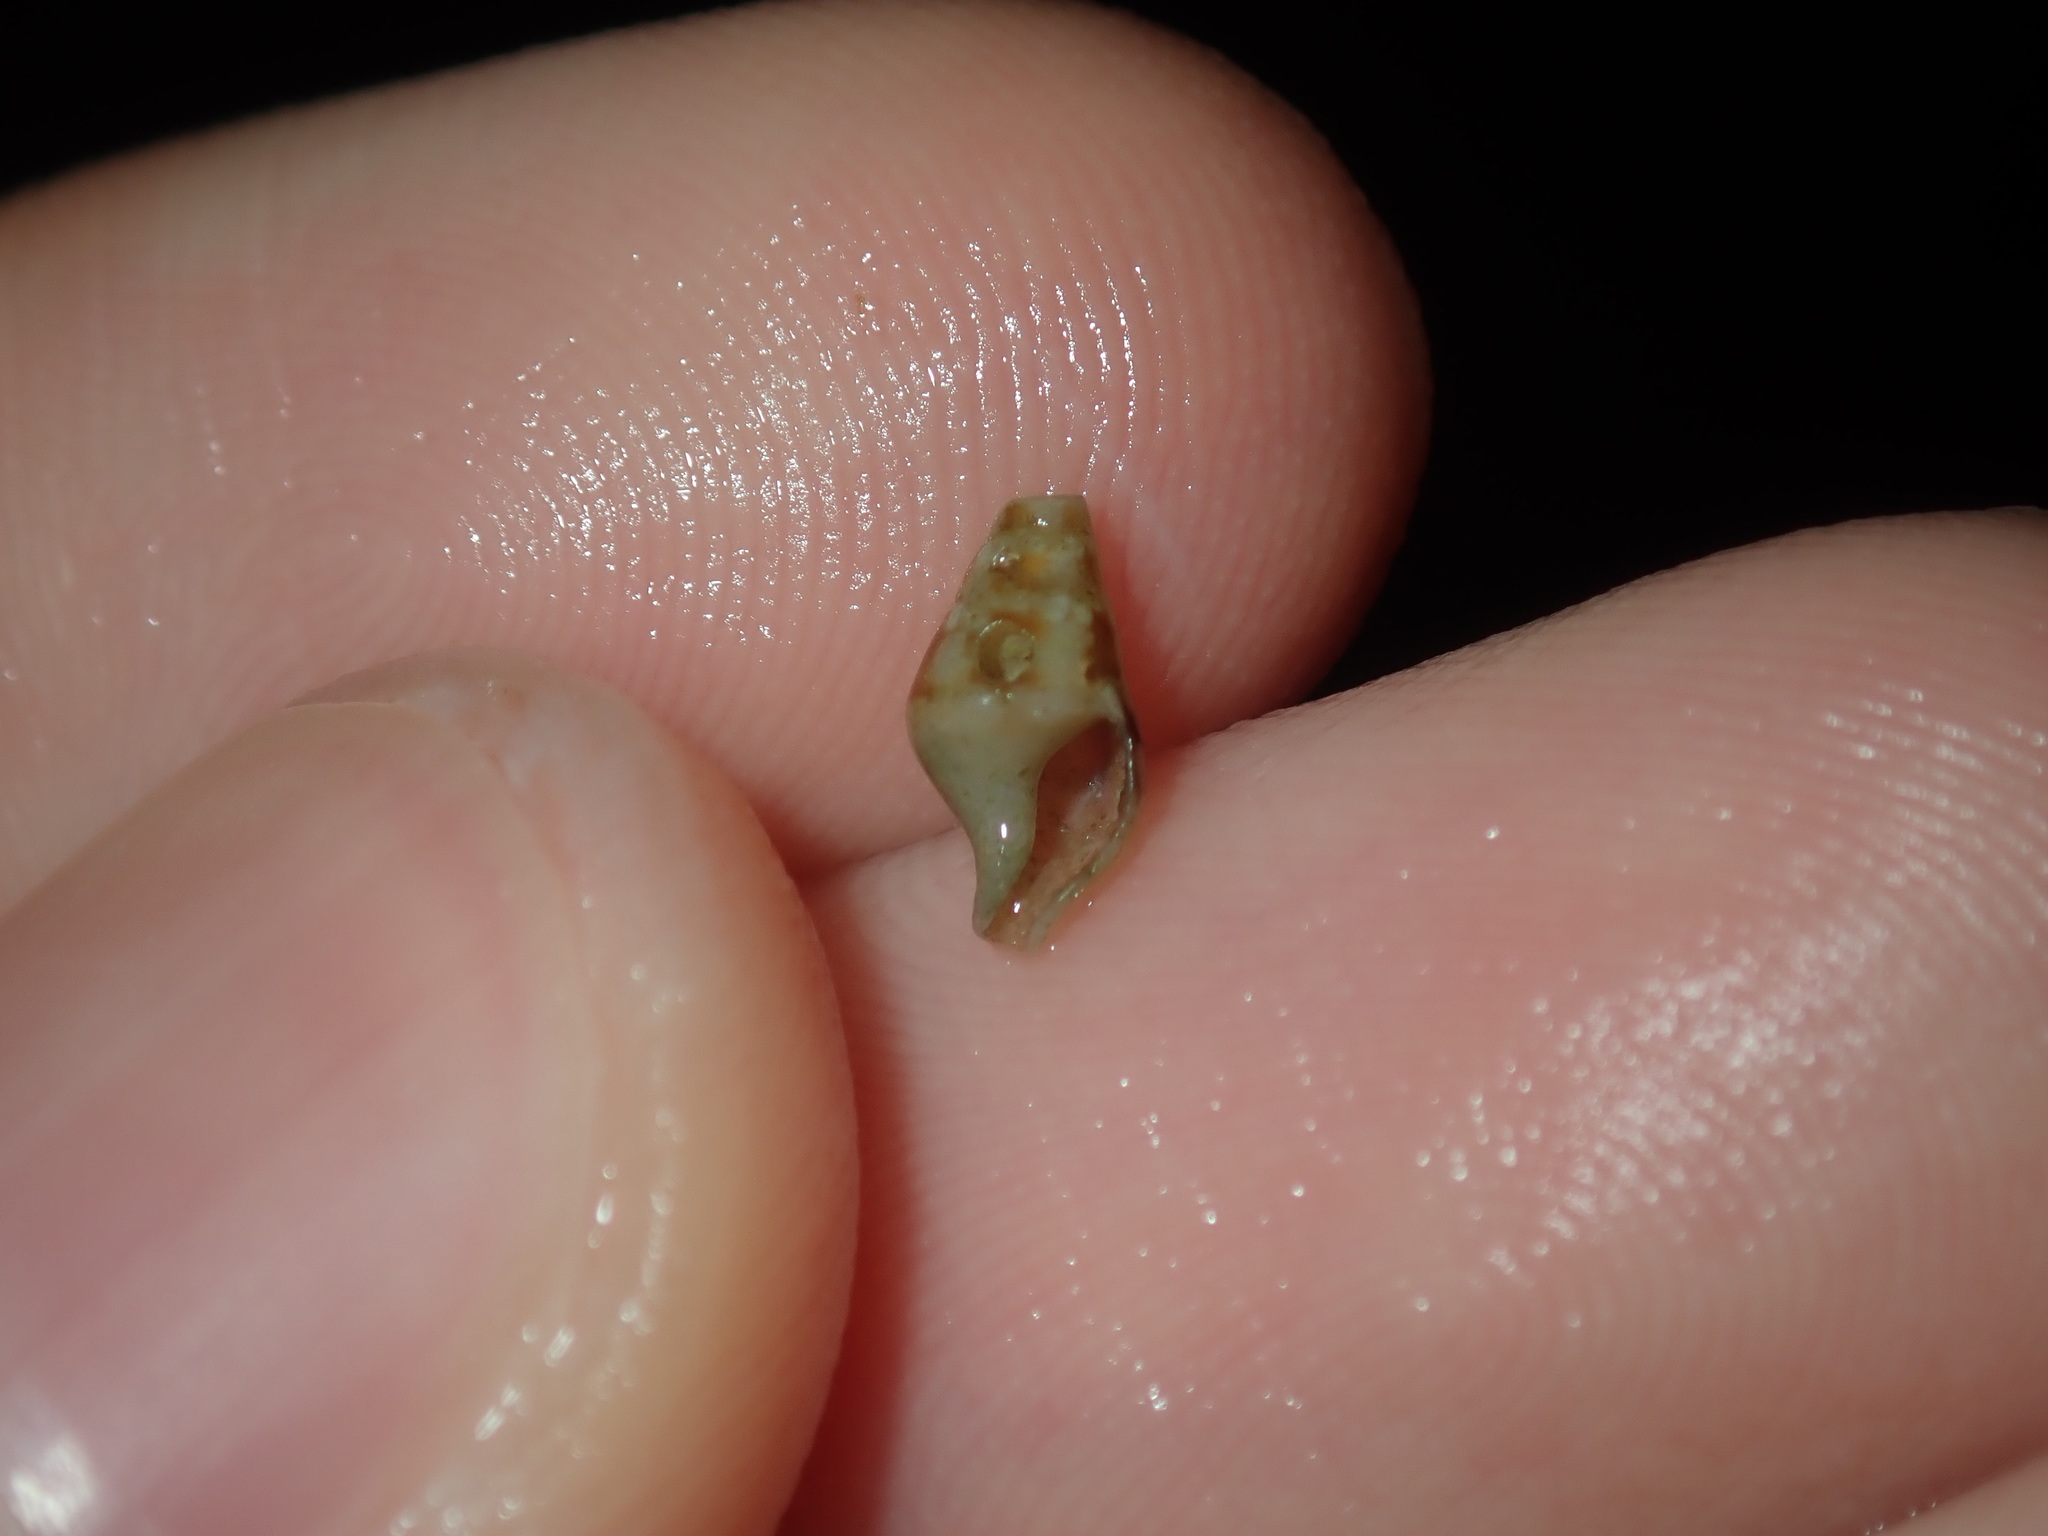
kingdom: Animalia
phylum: Mollusca
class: Gastropoda
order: Neogastropoda
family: Columbellidae
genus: Mitrella
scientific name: Mitrella tayloriana
